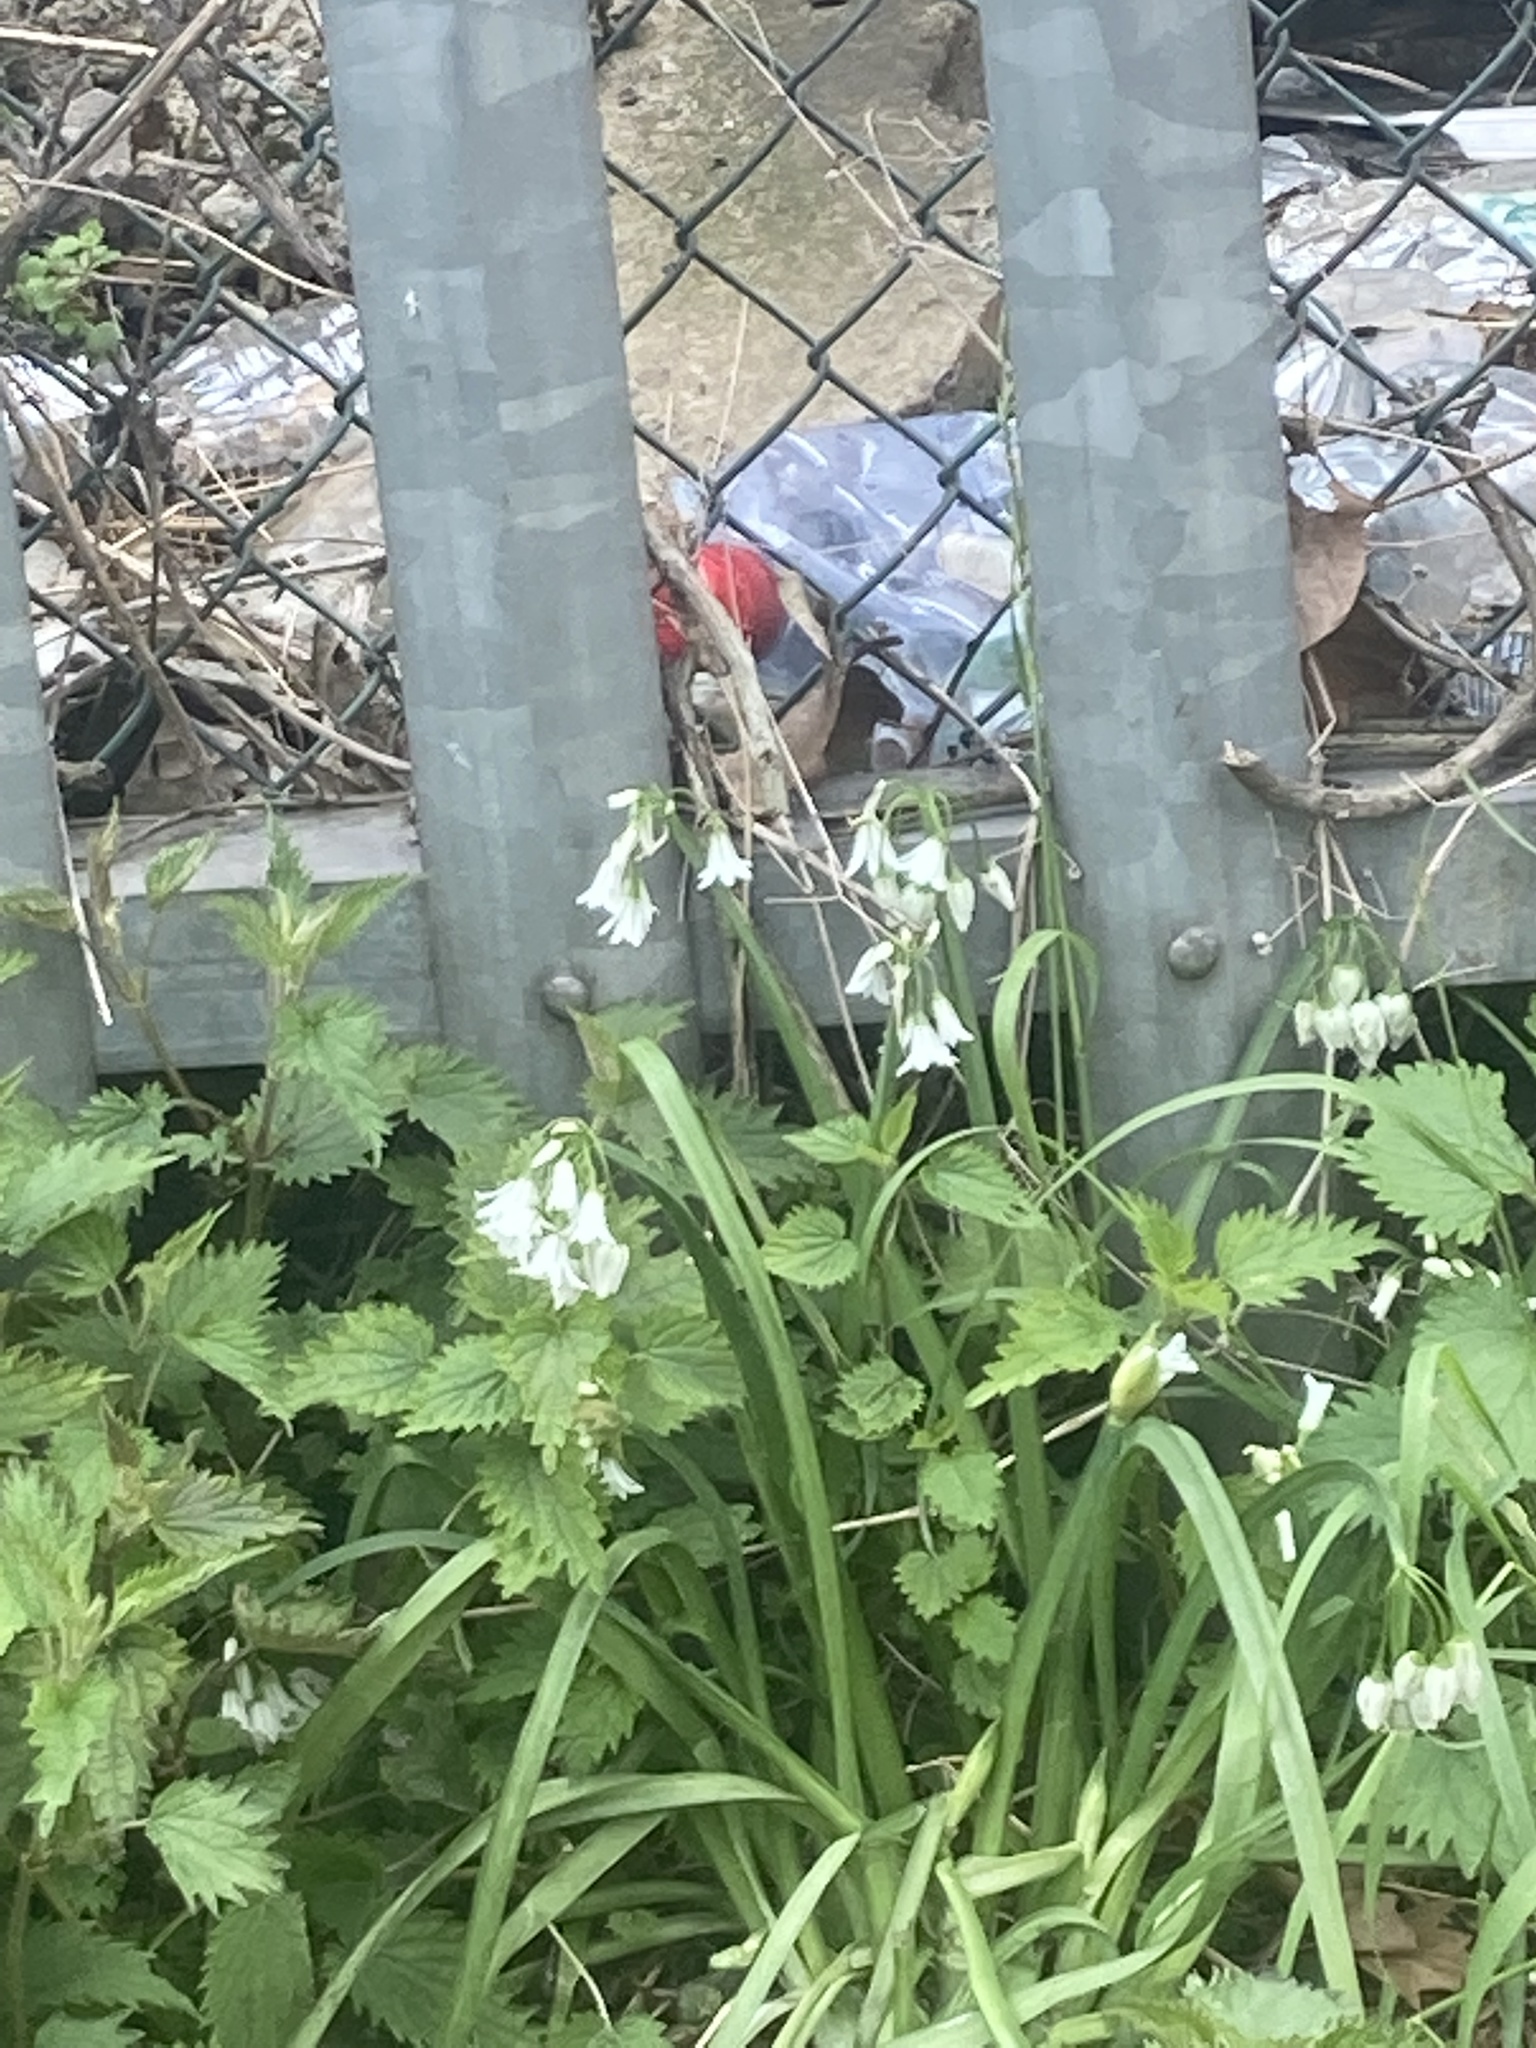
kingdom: Plantae
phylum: Tracheophyta
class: Liliopsida
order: Asparagales
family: Amaryllidaceae
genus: Allium
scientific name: Allium triquetrum
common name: Three-cornered garlic
